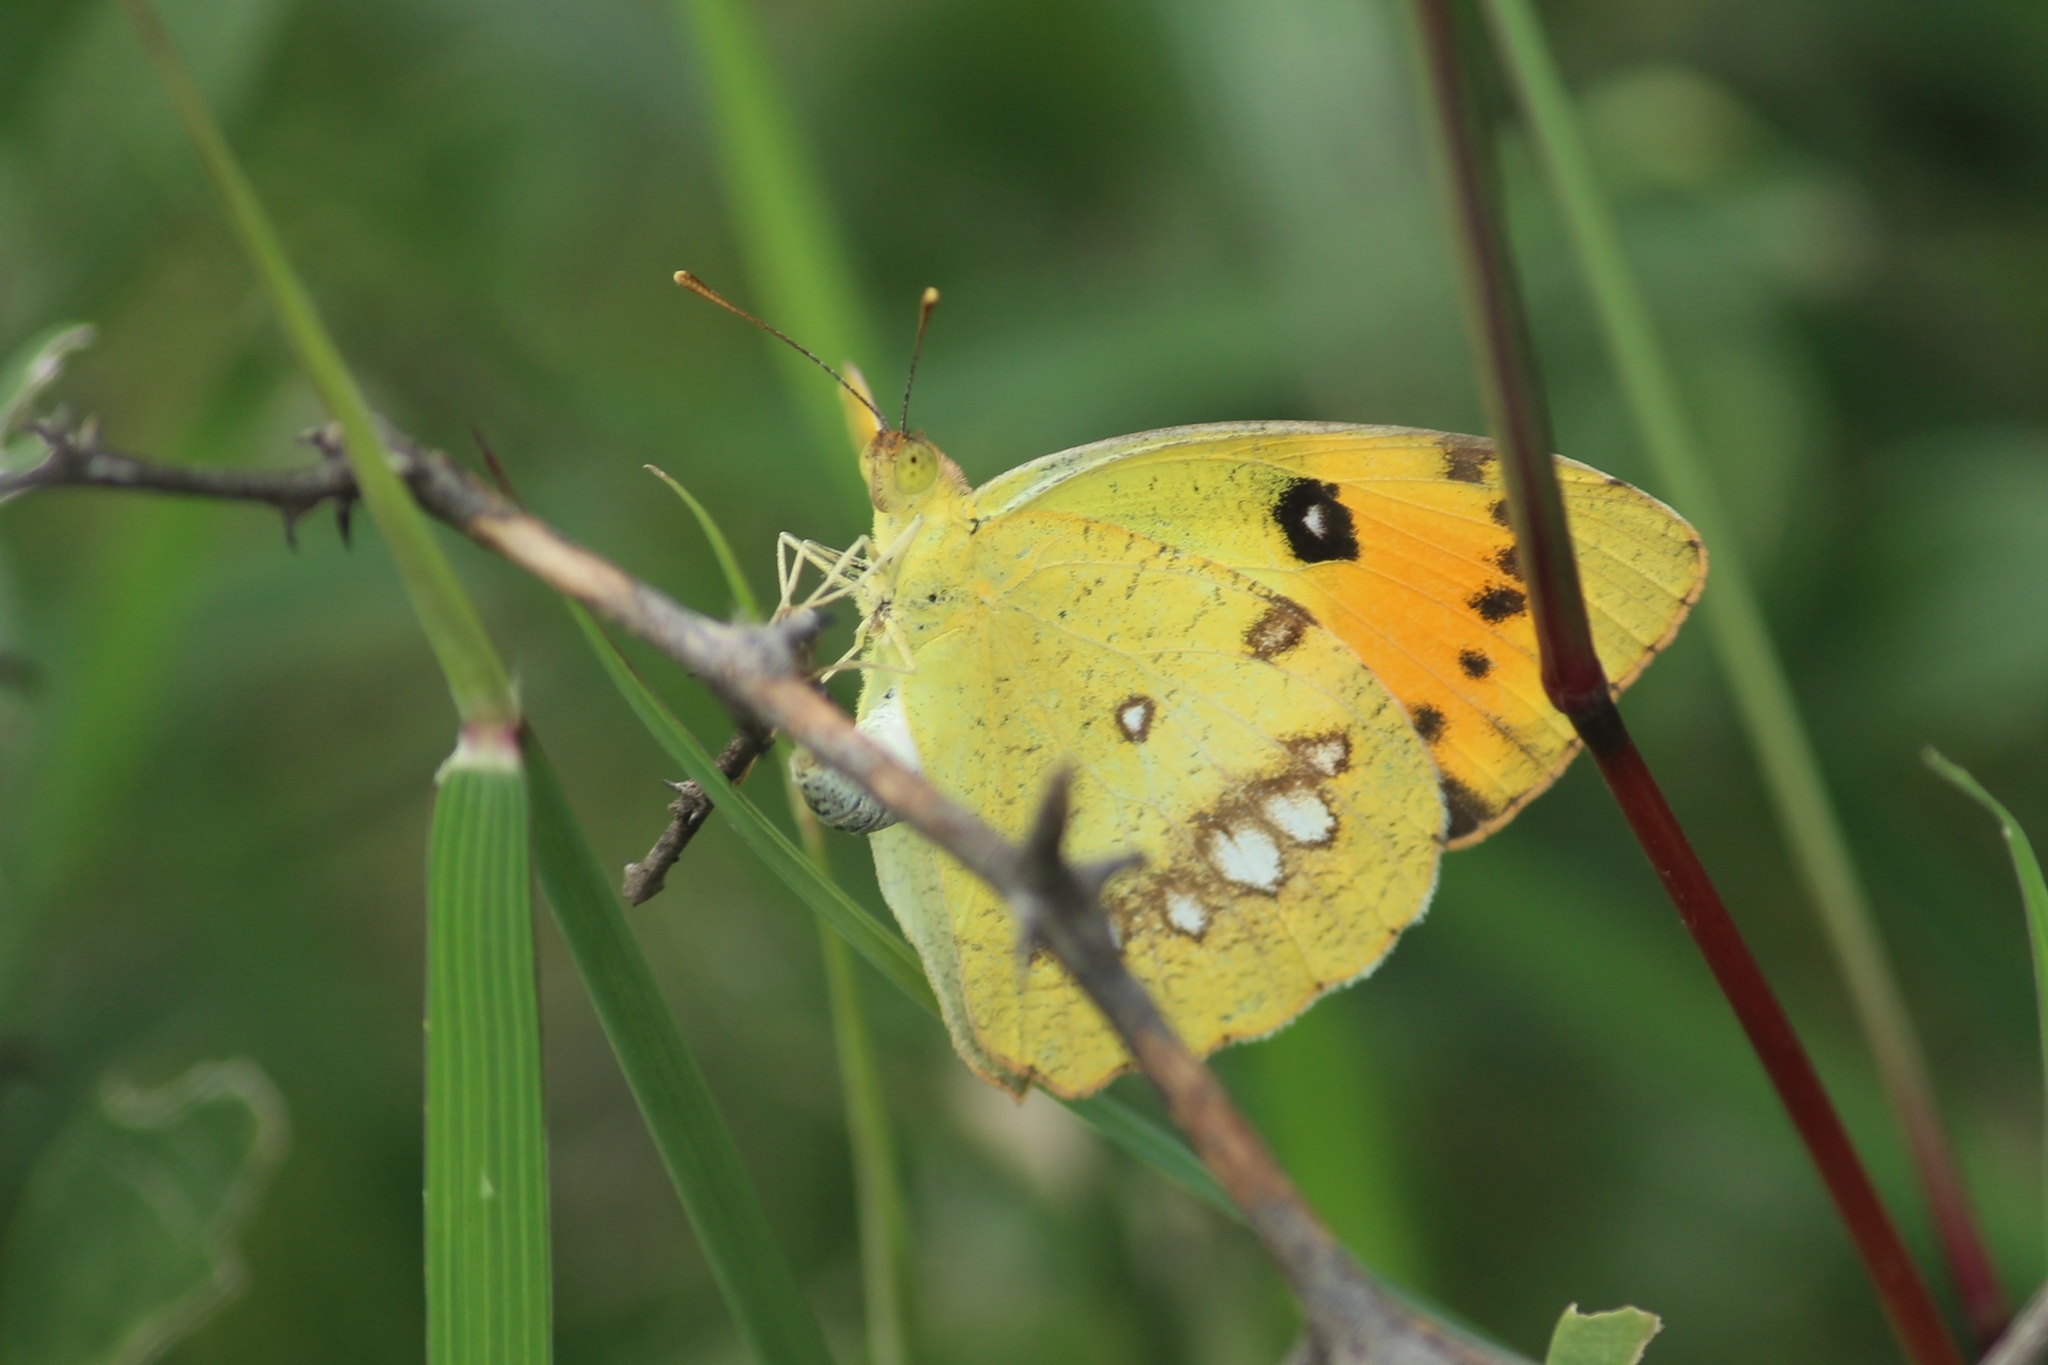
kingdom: Animalia
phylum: Arthropoda
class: Insecta
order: Lepidoptera
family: Pieridae
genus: Ixias
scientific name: Ixias marianne
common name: White orange tip
